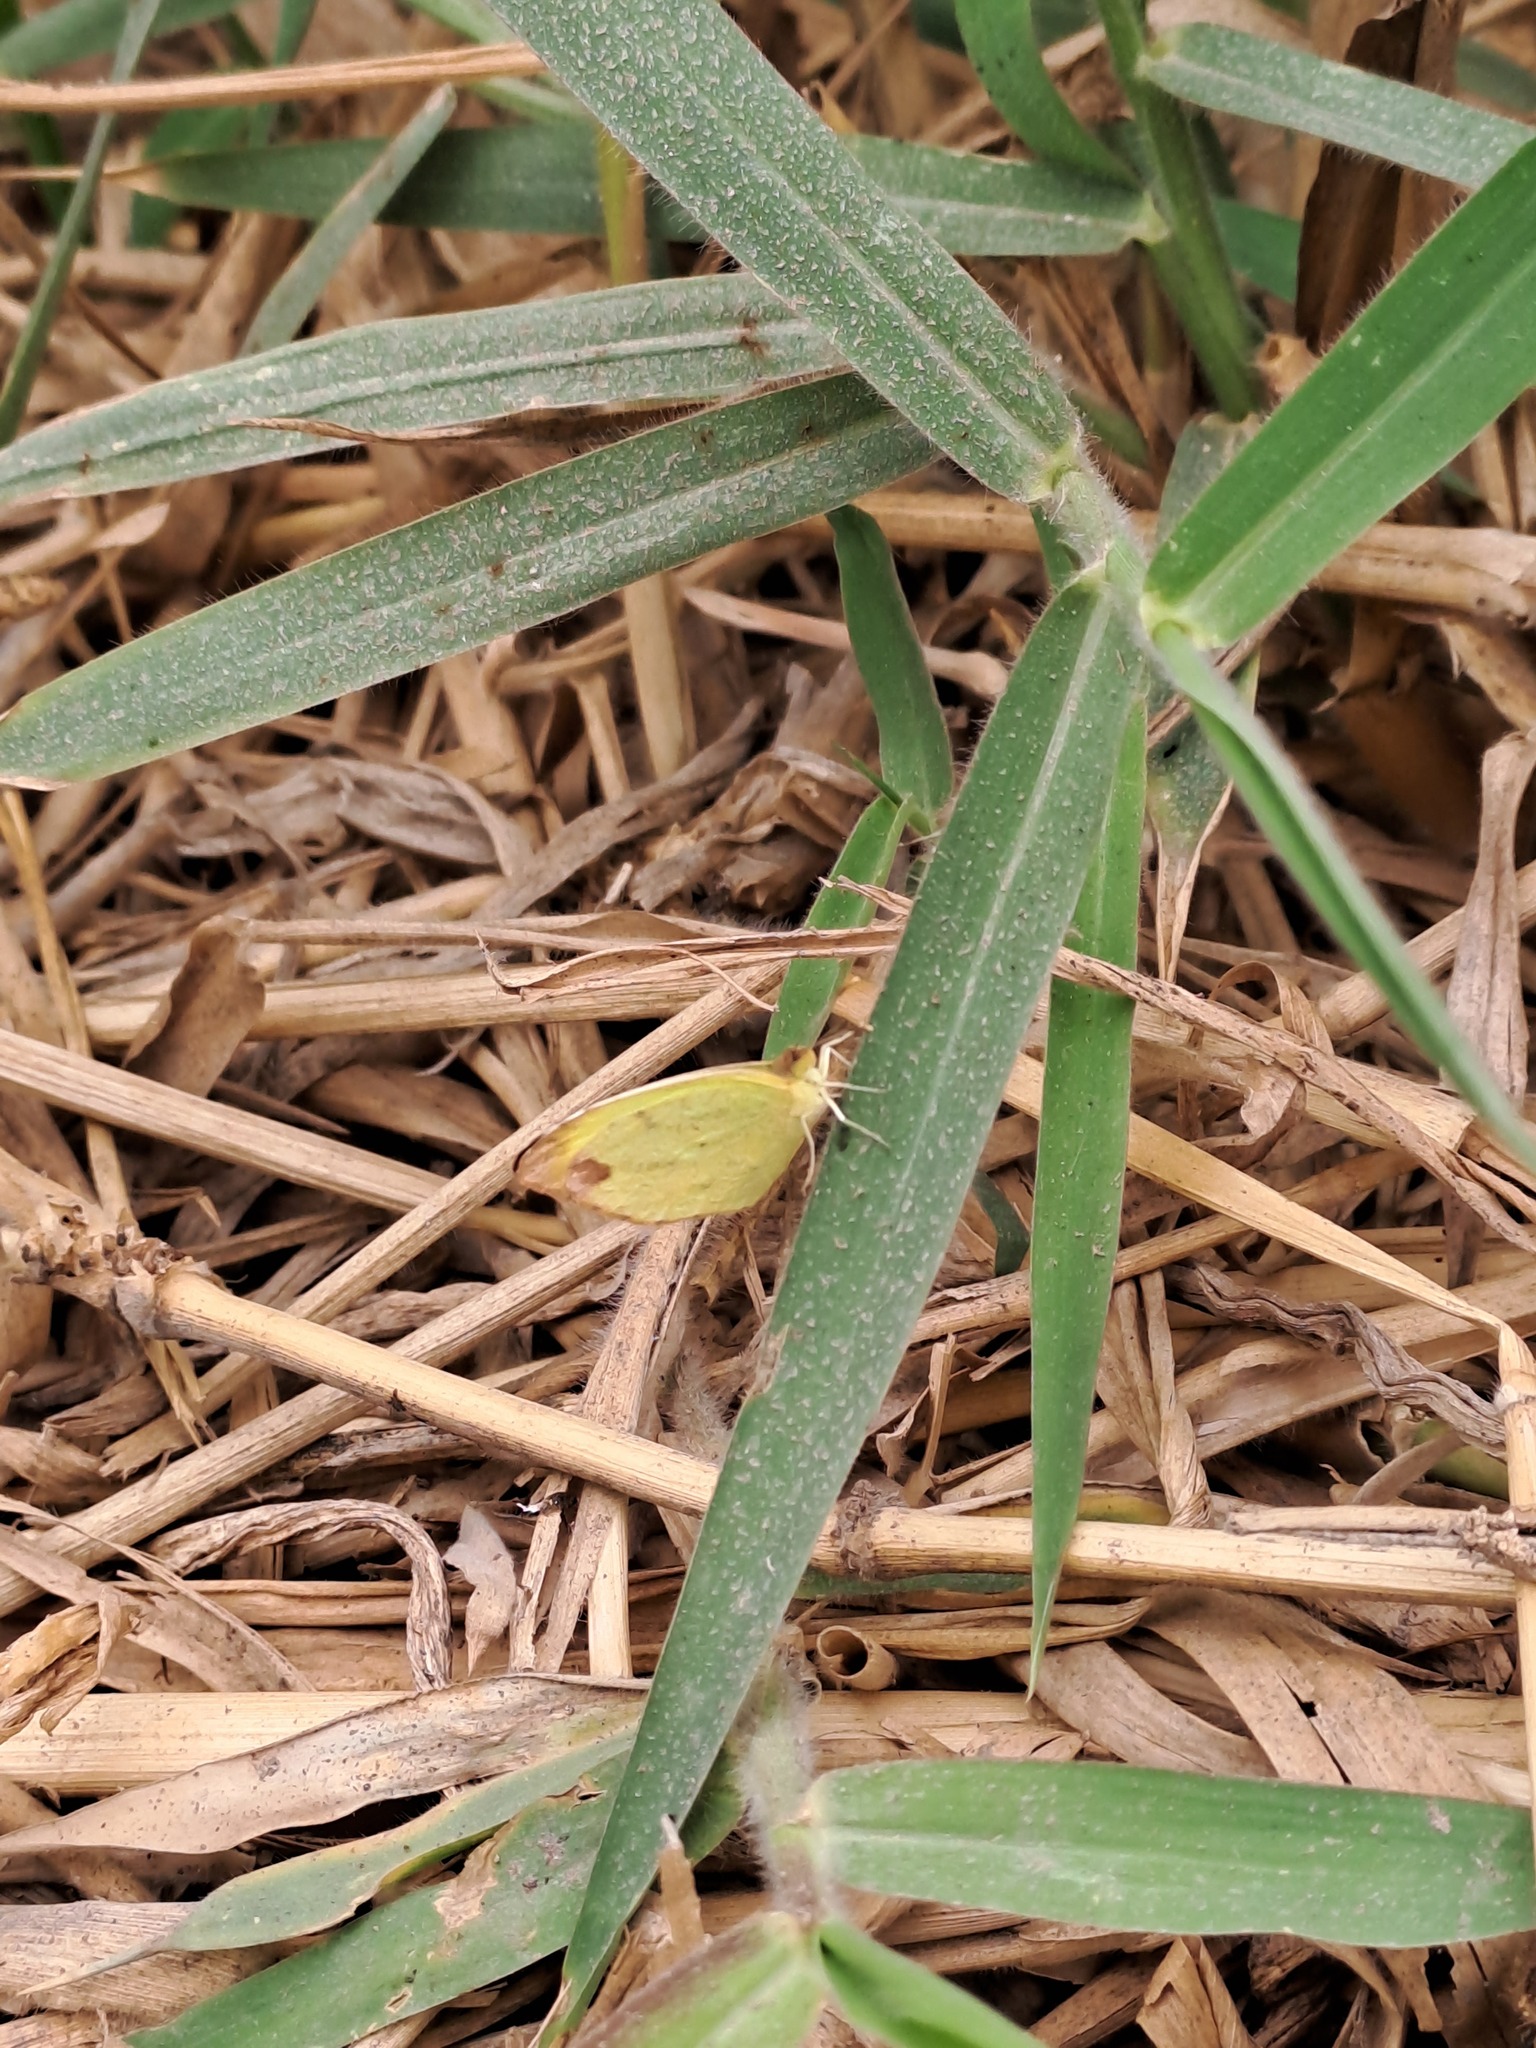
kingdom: Animalia
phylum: Arthropoda
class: Insecta
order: Lepidoptera
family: Pieridae
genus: Pyrisitia
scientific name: Pyrisitia nise
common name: Mimosa yellow
